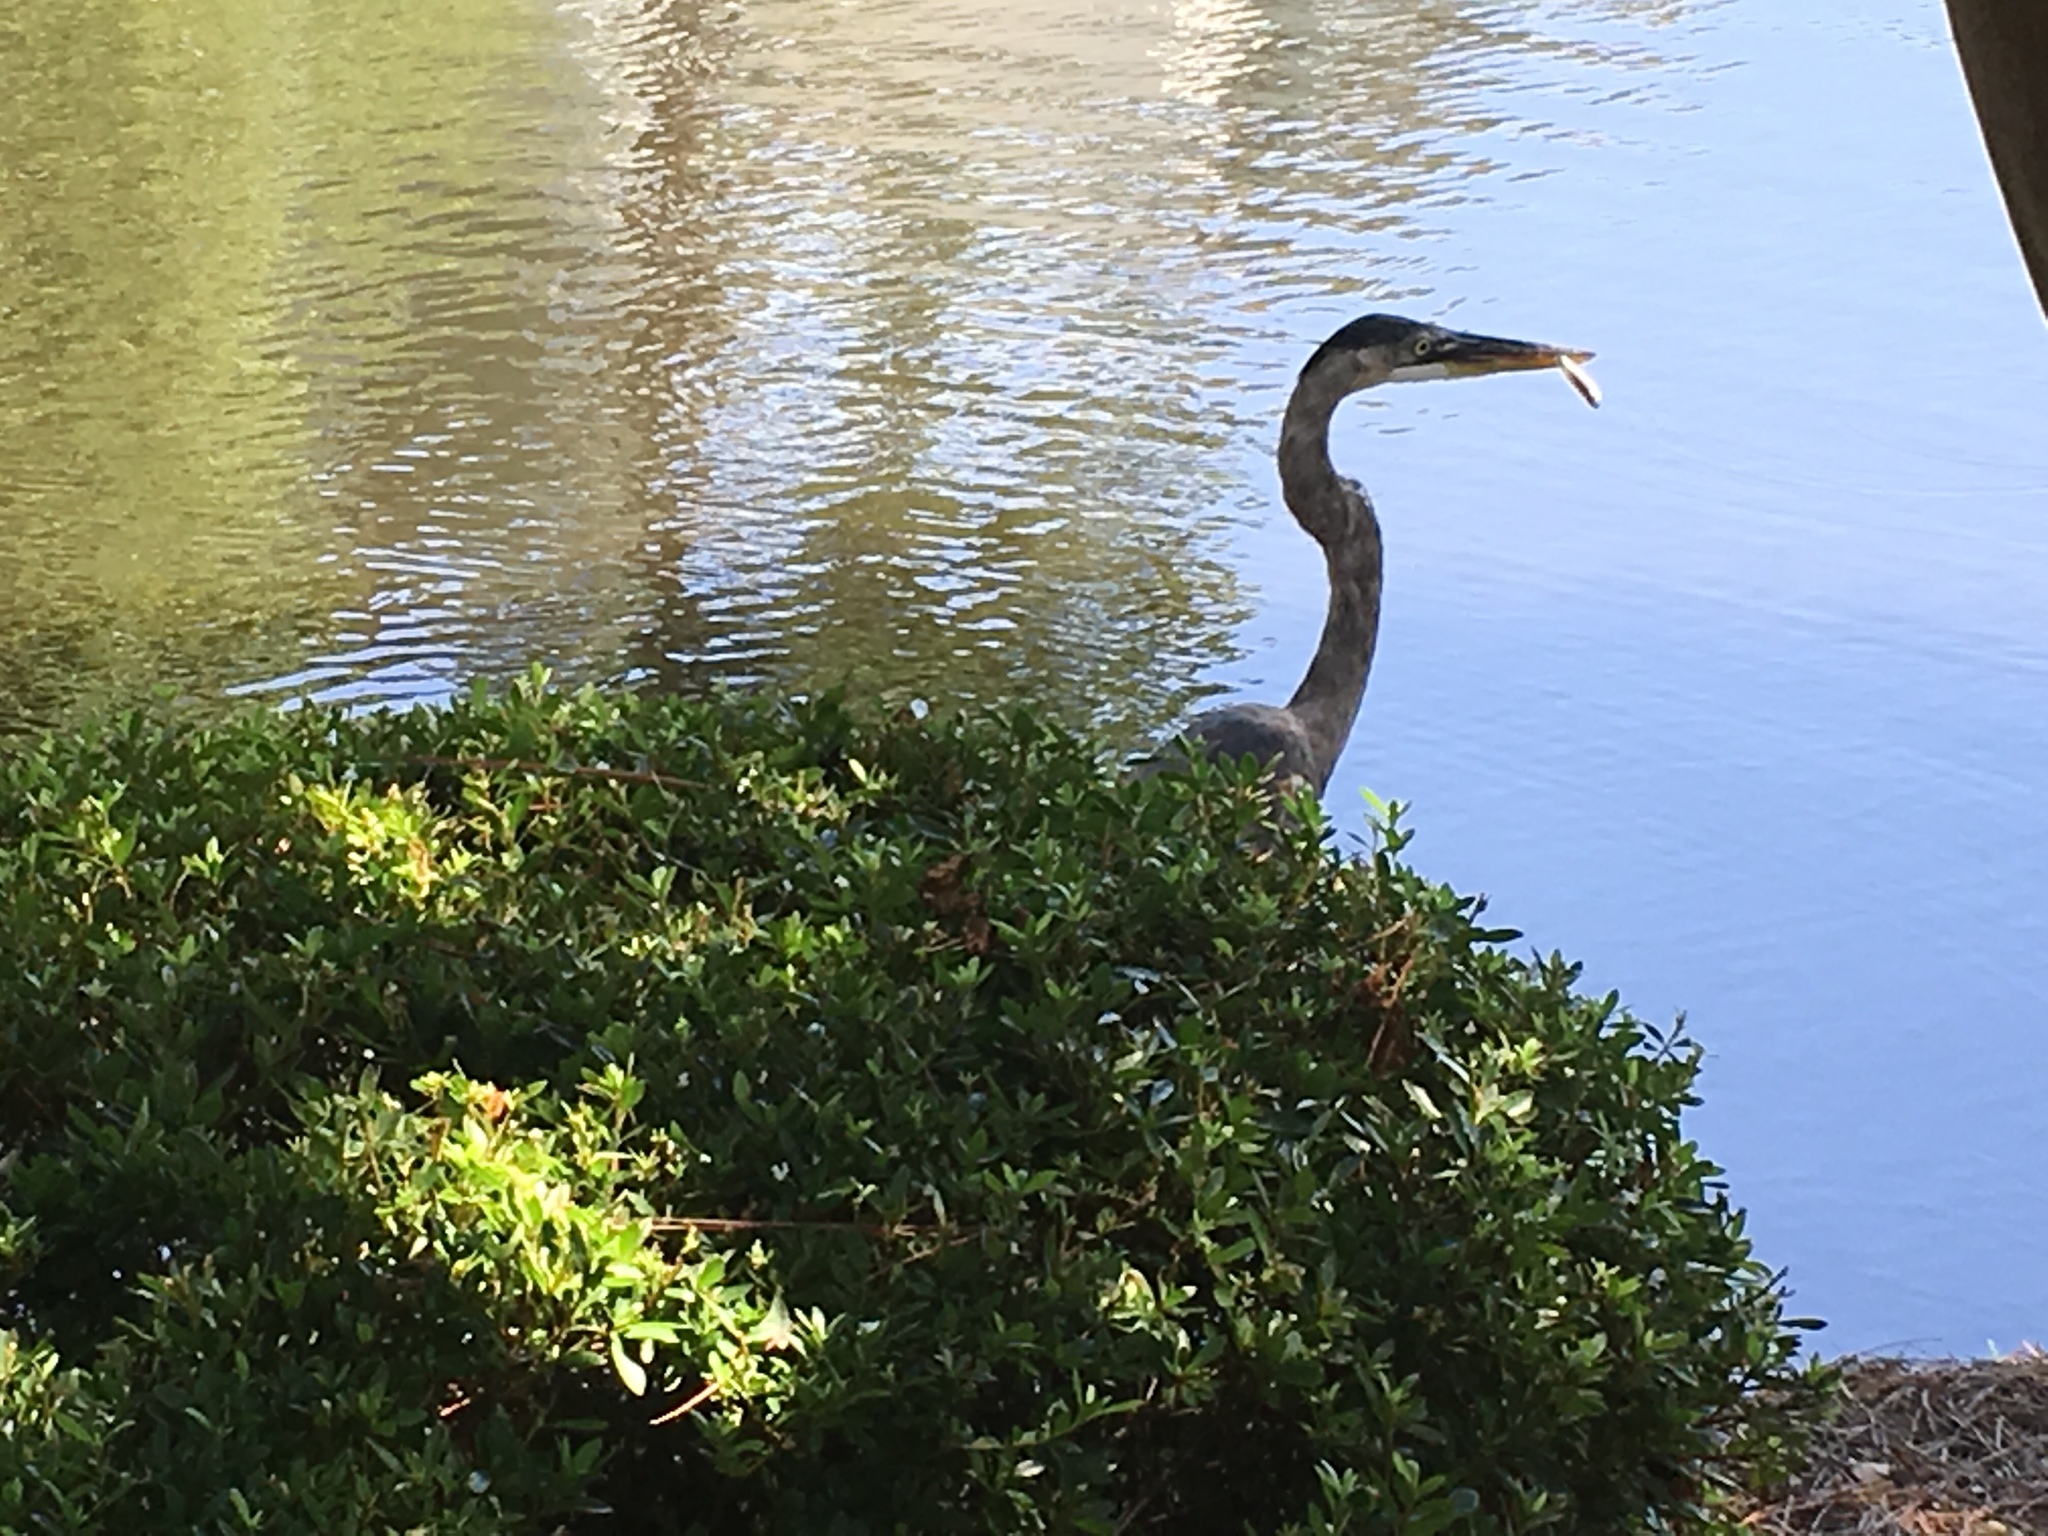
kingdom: Animalia
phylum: Chordata
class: Aves
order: Pelecaniformes
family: Ardeidae
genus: Ardea
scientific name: Ardea herodias
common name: Great blue heron
